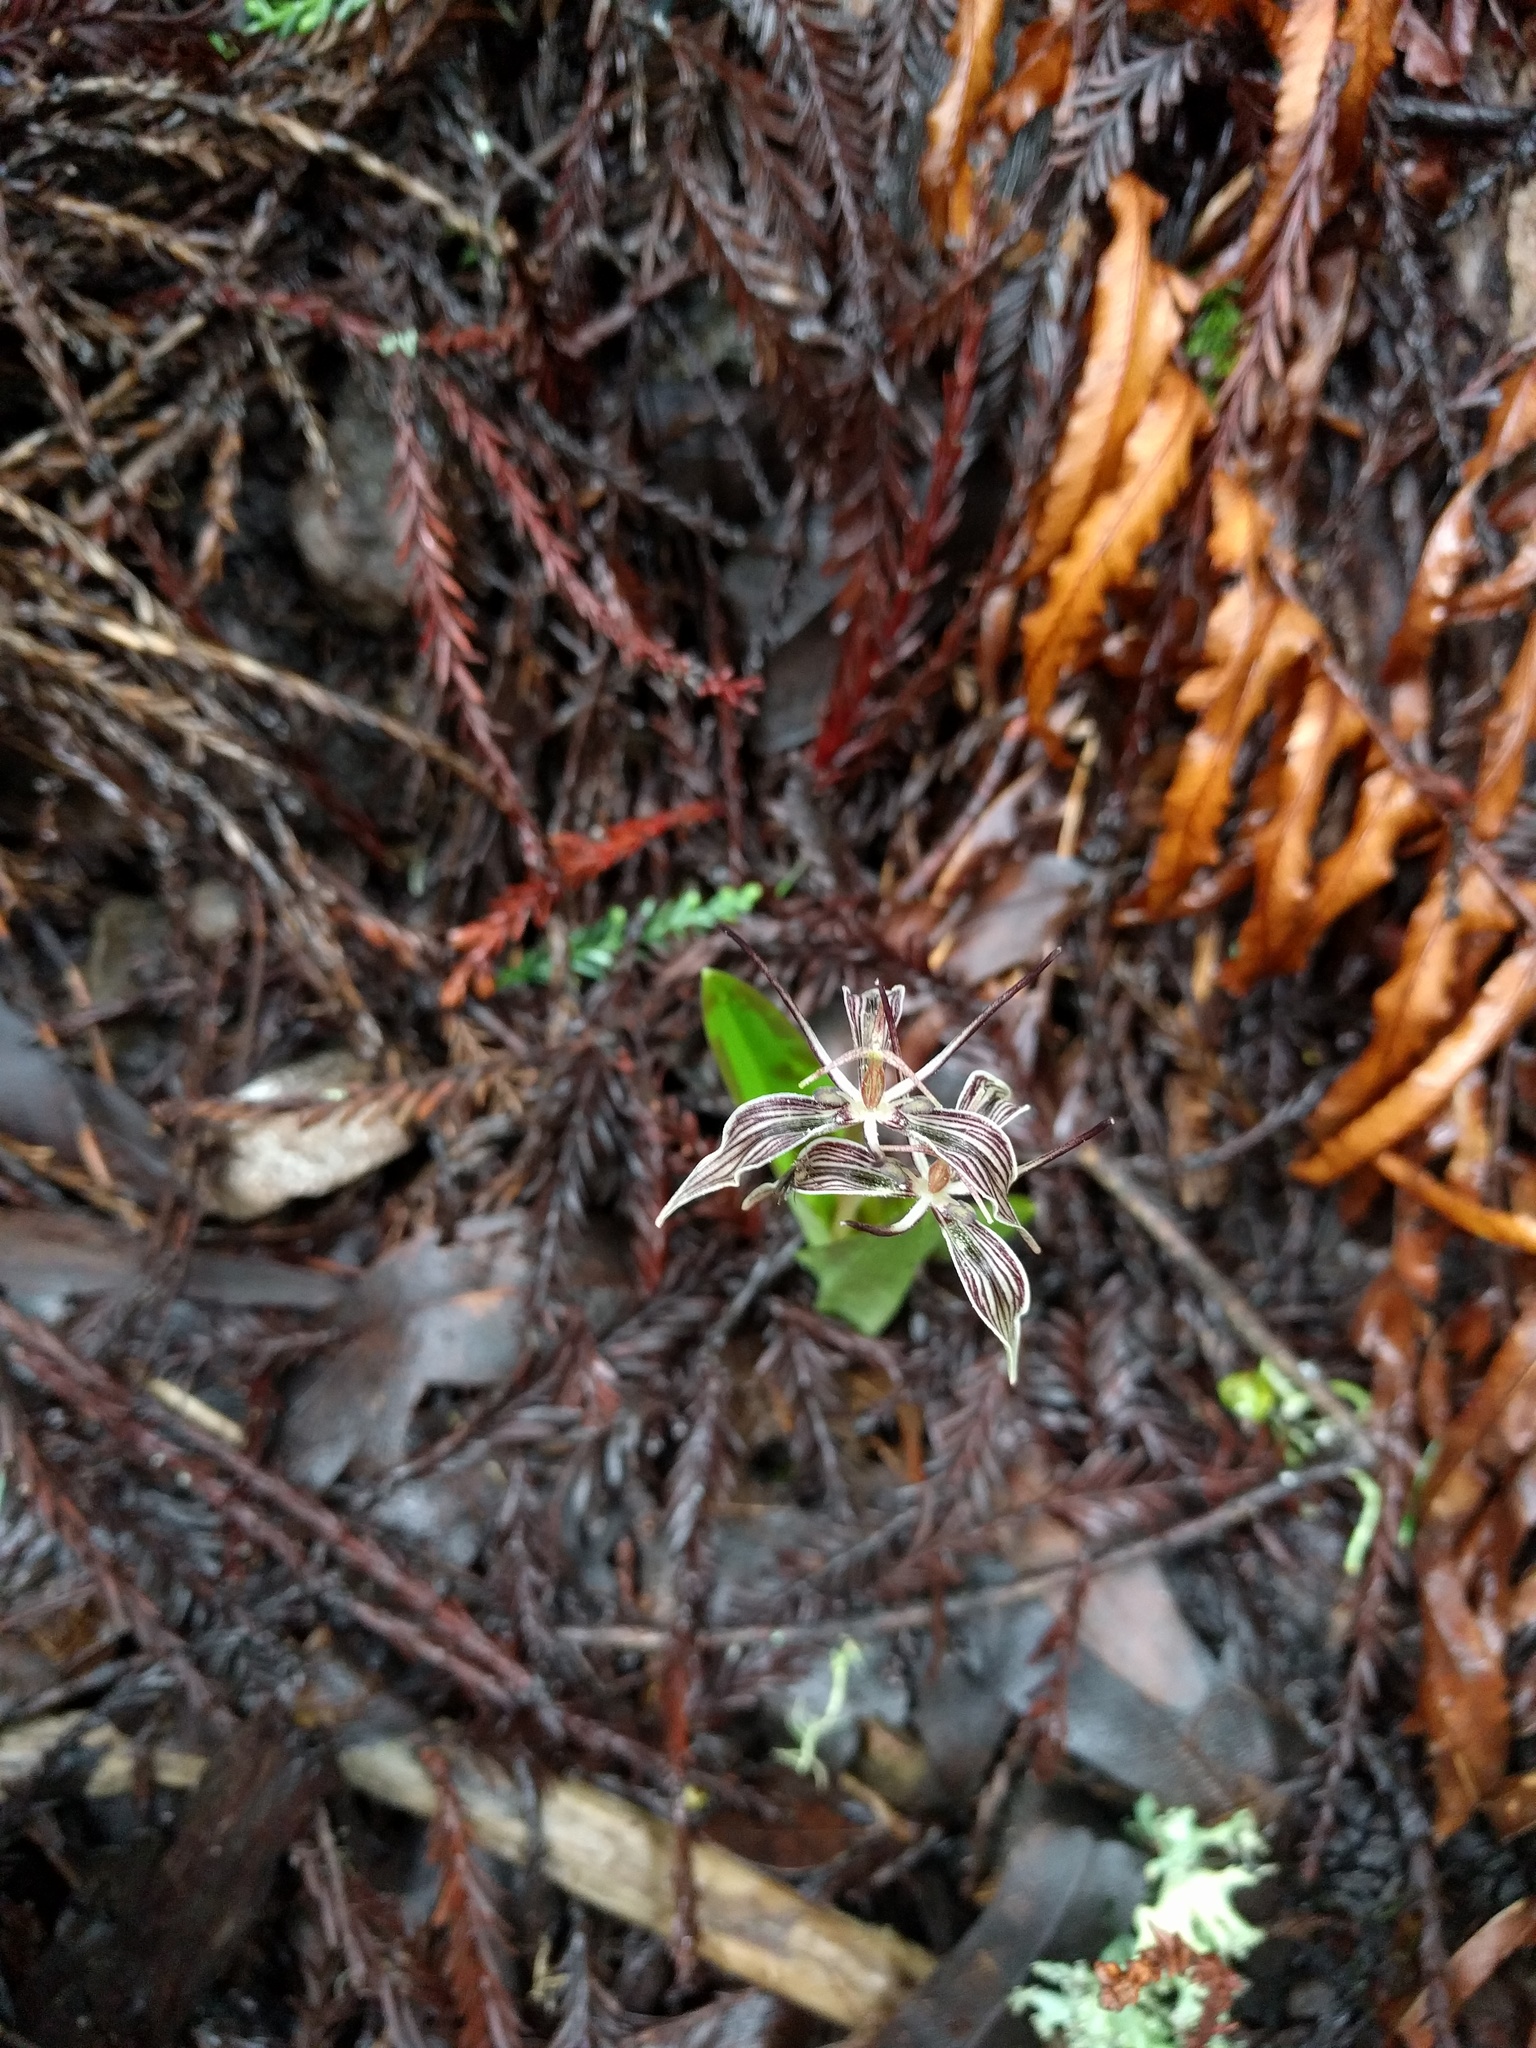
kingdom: Plantae
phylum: Tracheophyta
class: Liliopsida
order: Liliales
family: Liliaceae
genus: Scoliopus
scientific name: Scoliopus bigelovii
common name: Foetid adder's-tongue
